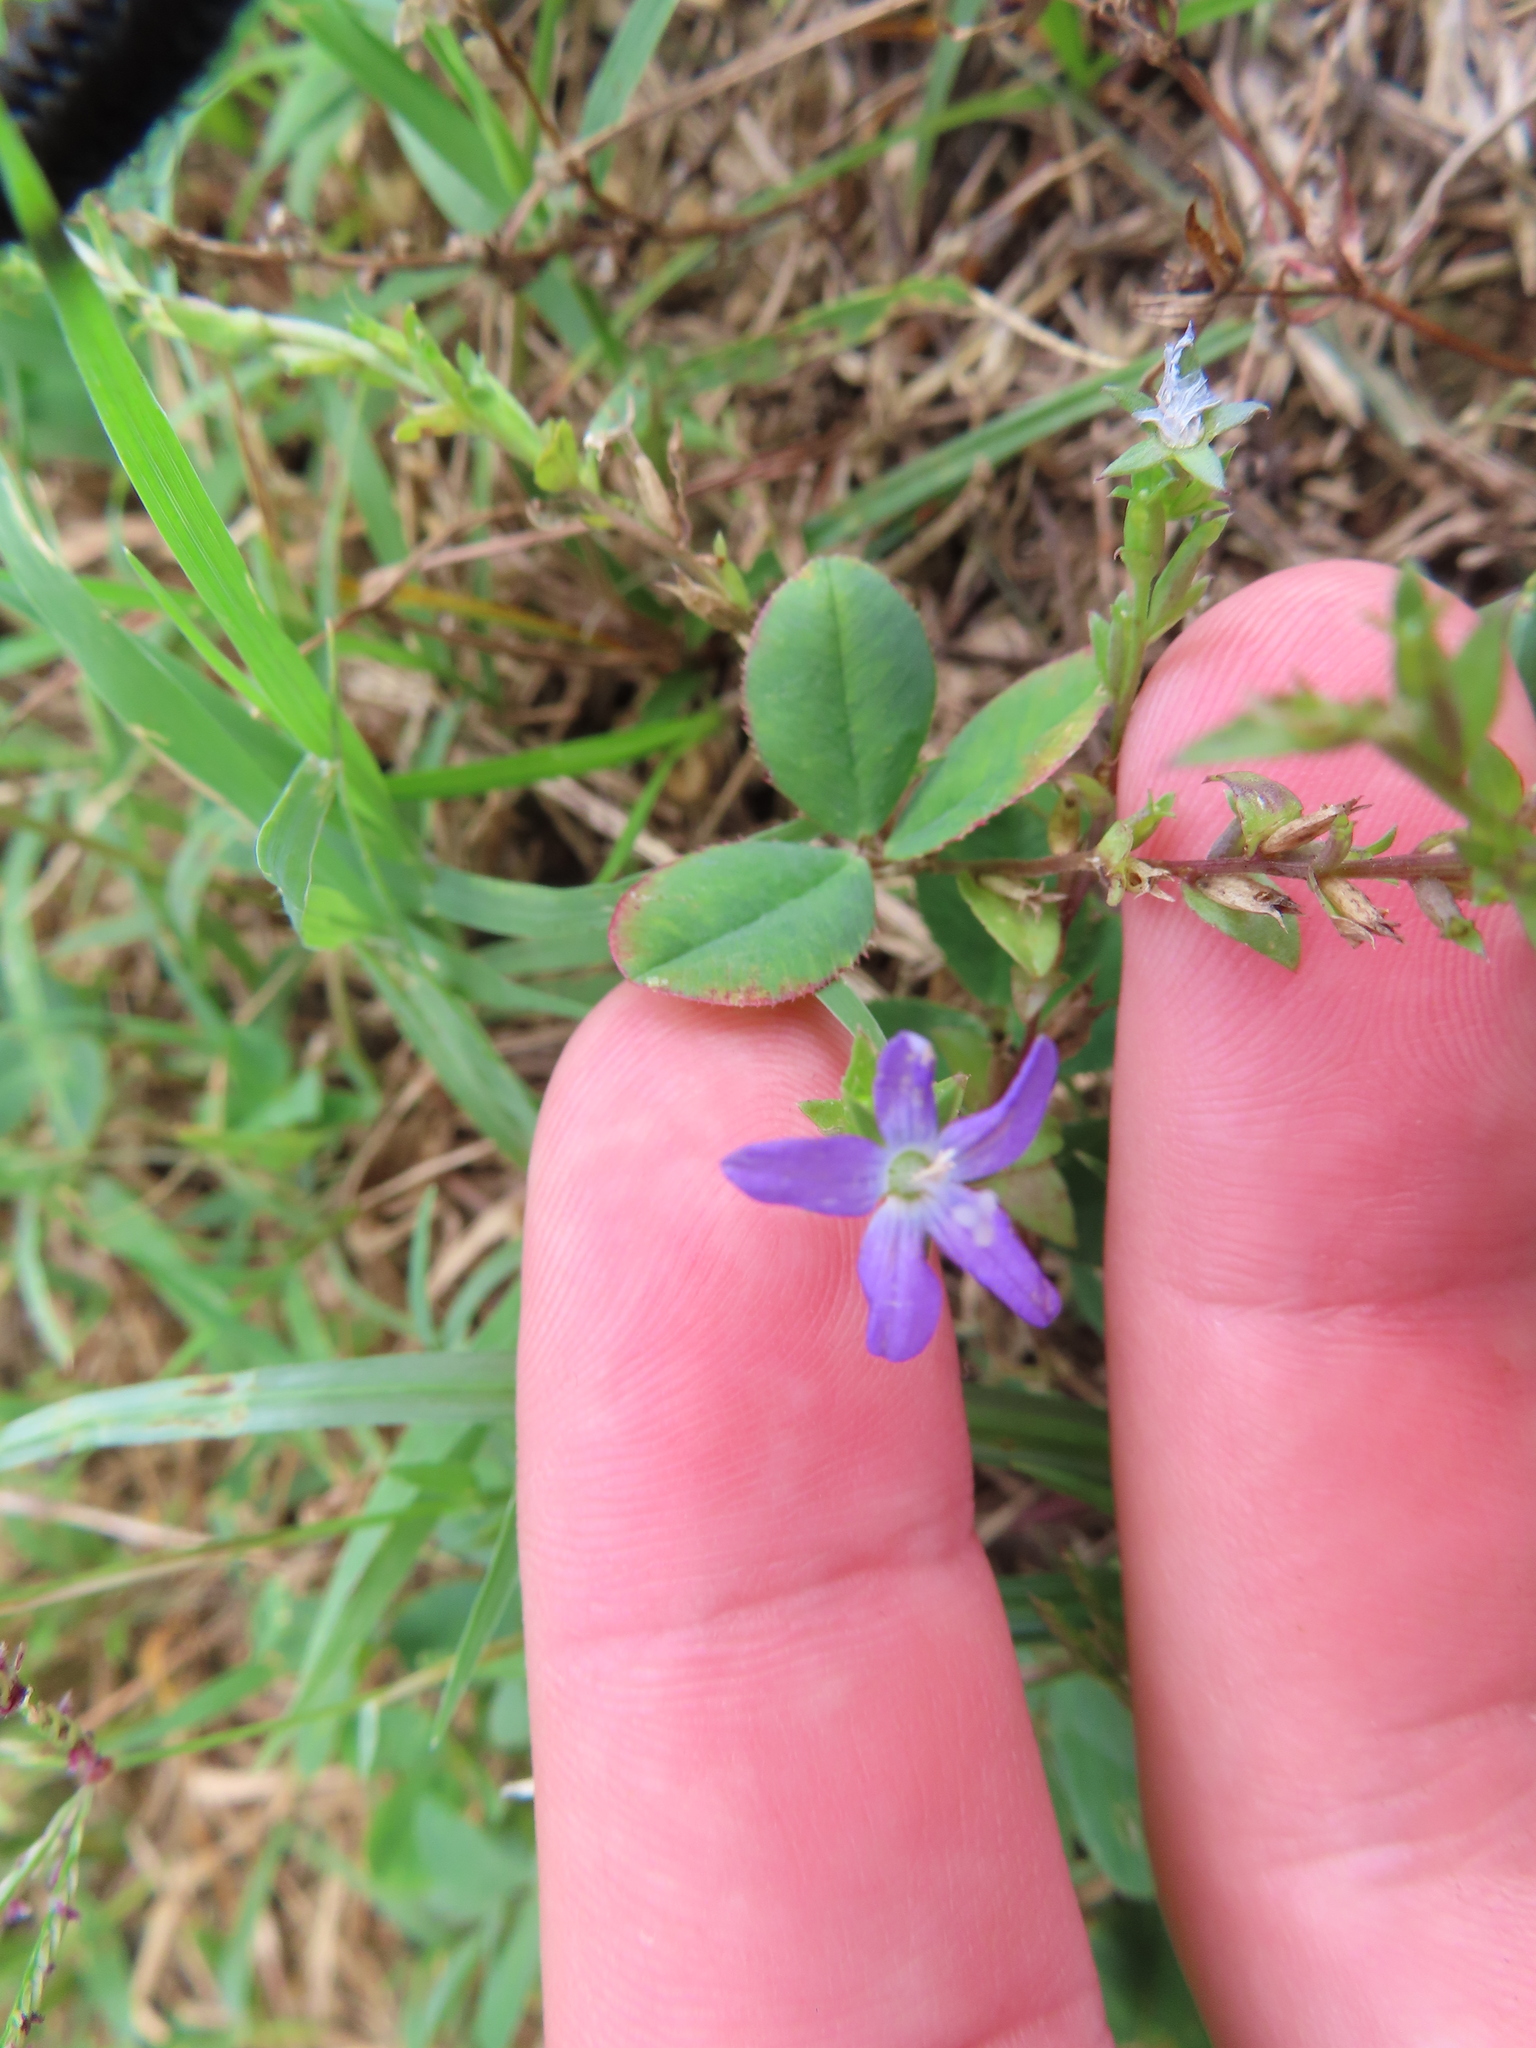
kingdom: Plantae
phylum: Tracheophyta
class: Magnoliopsida
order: Asterales
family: Campanulaceae
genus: Triodanis
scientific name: Triodanis biflora
